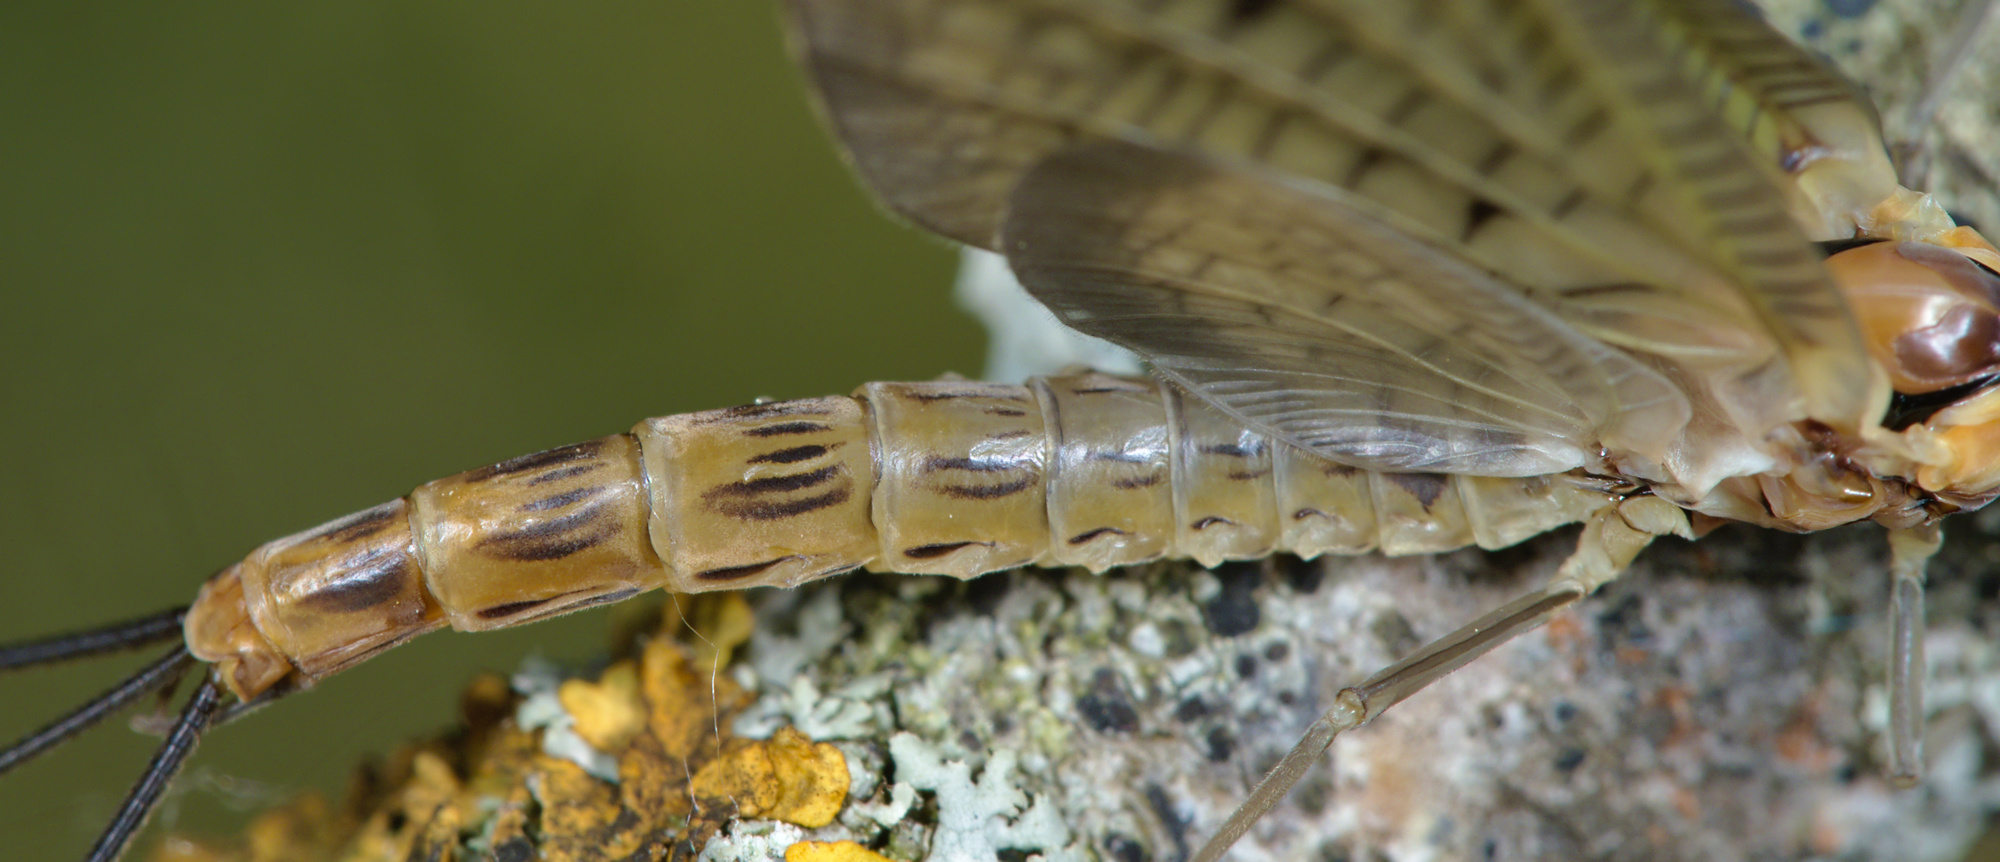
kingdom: Animalia
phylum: Arthropoda
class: Insecta
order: Ephemeroptera
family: Ephemeridae
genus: Ephemera
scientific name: Ephemera lineata
